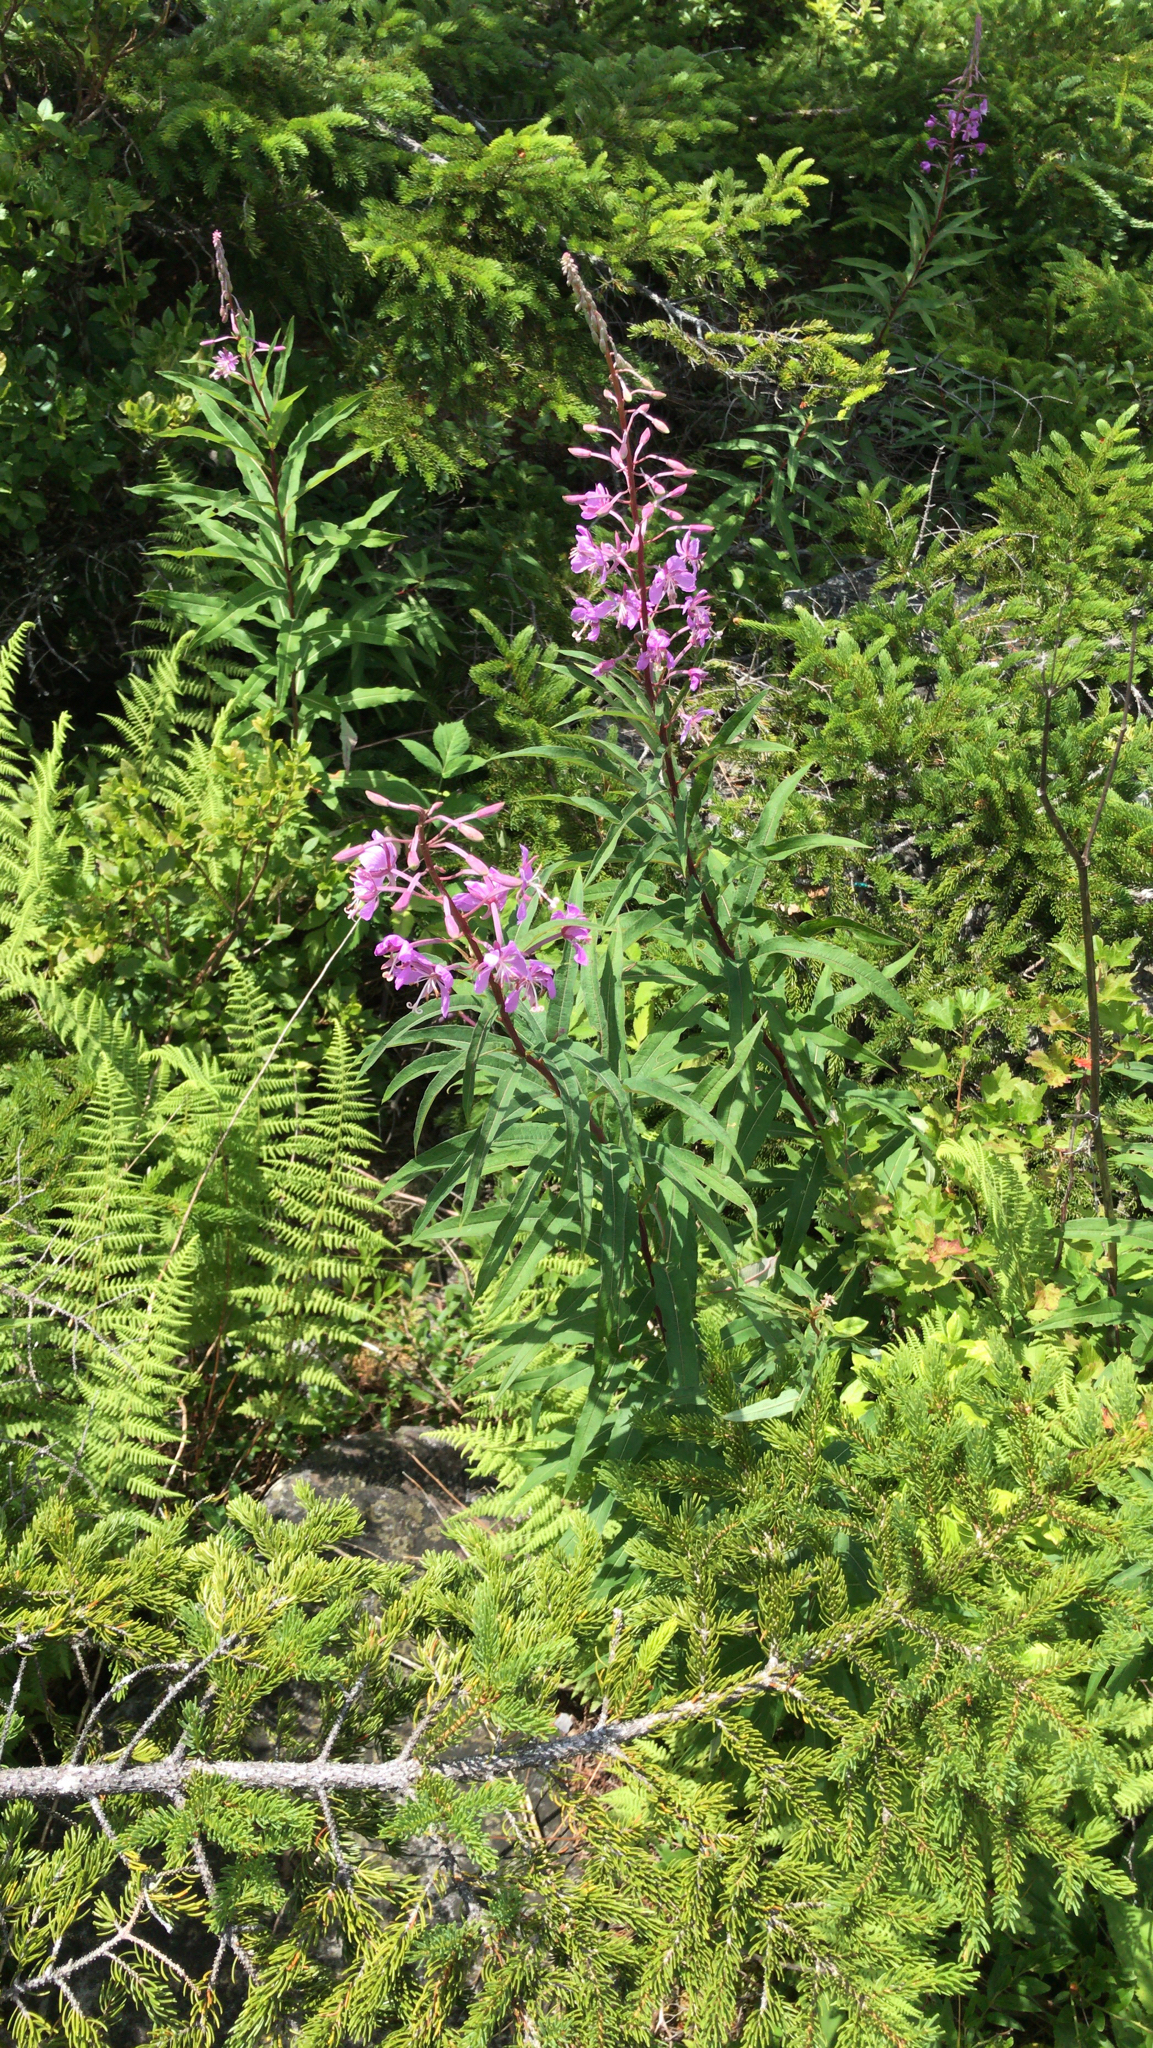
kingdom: Plantae
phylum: Tracheophyta
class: Magnoliopsida
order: Myrtales
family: Onagraceae
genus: Chamaenerion
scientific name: Chamaenerion angustifolium
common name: Fireweed
